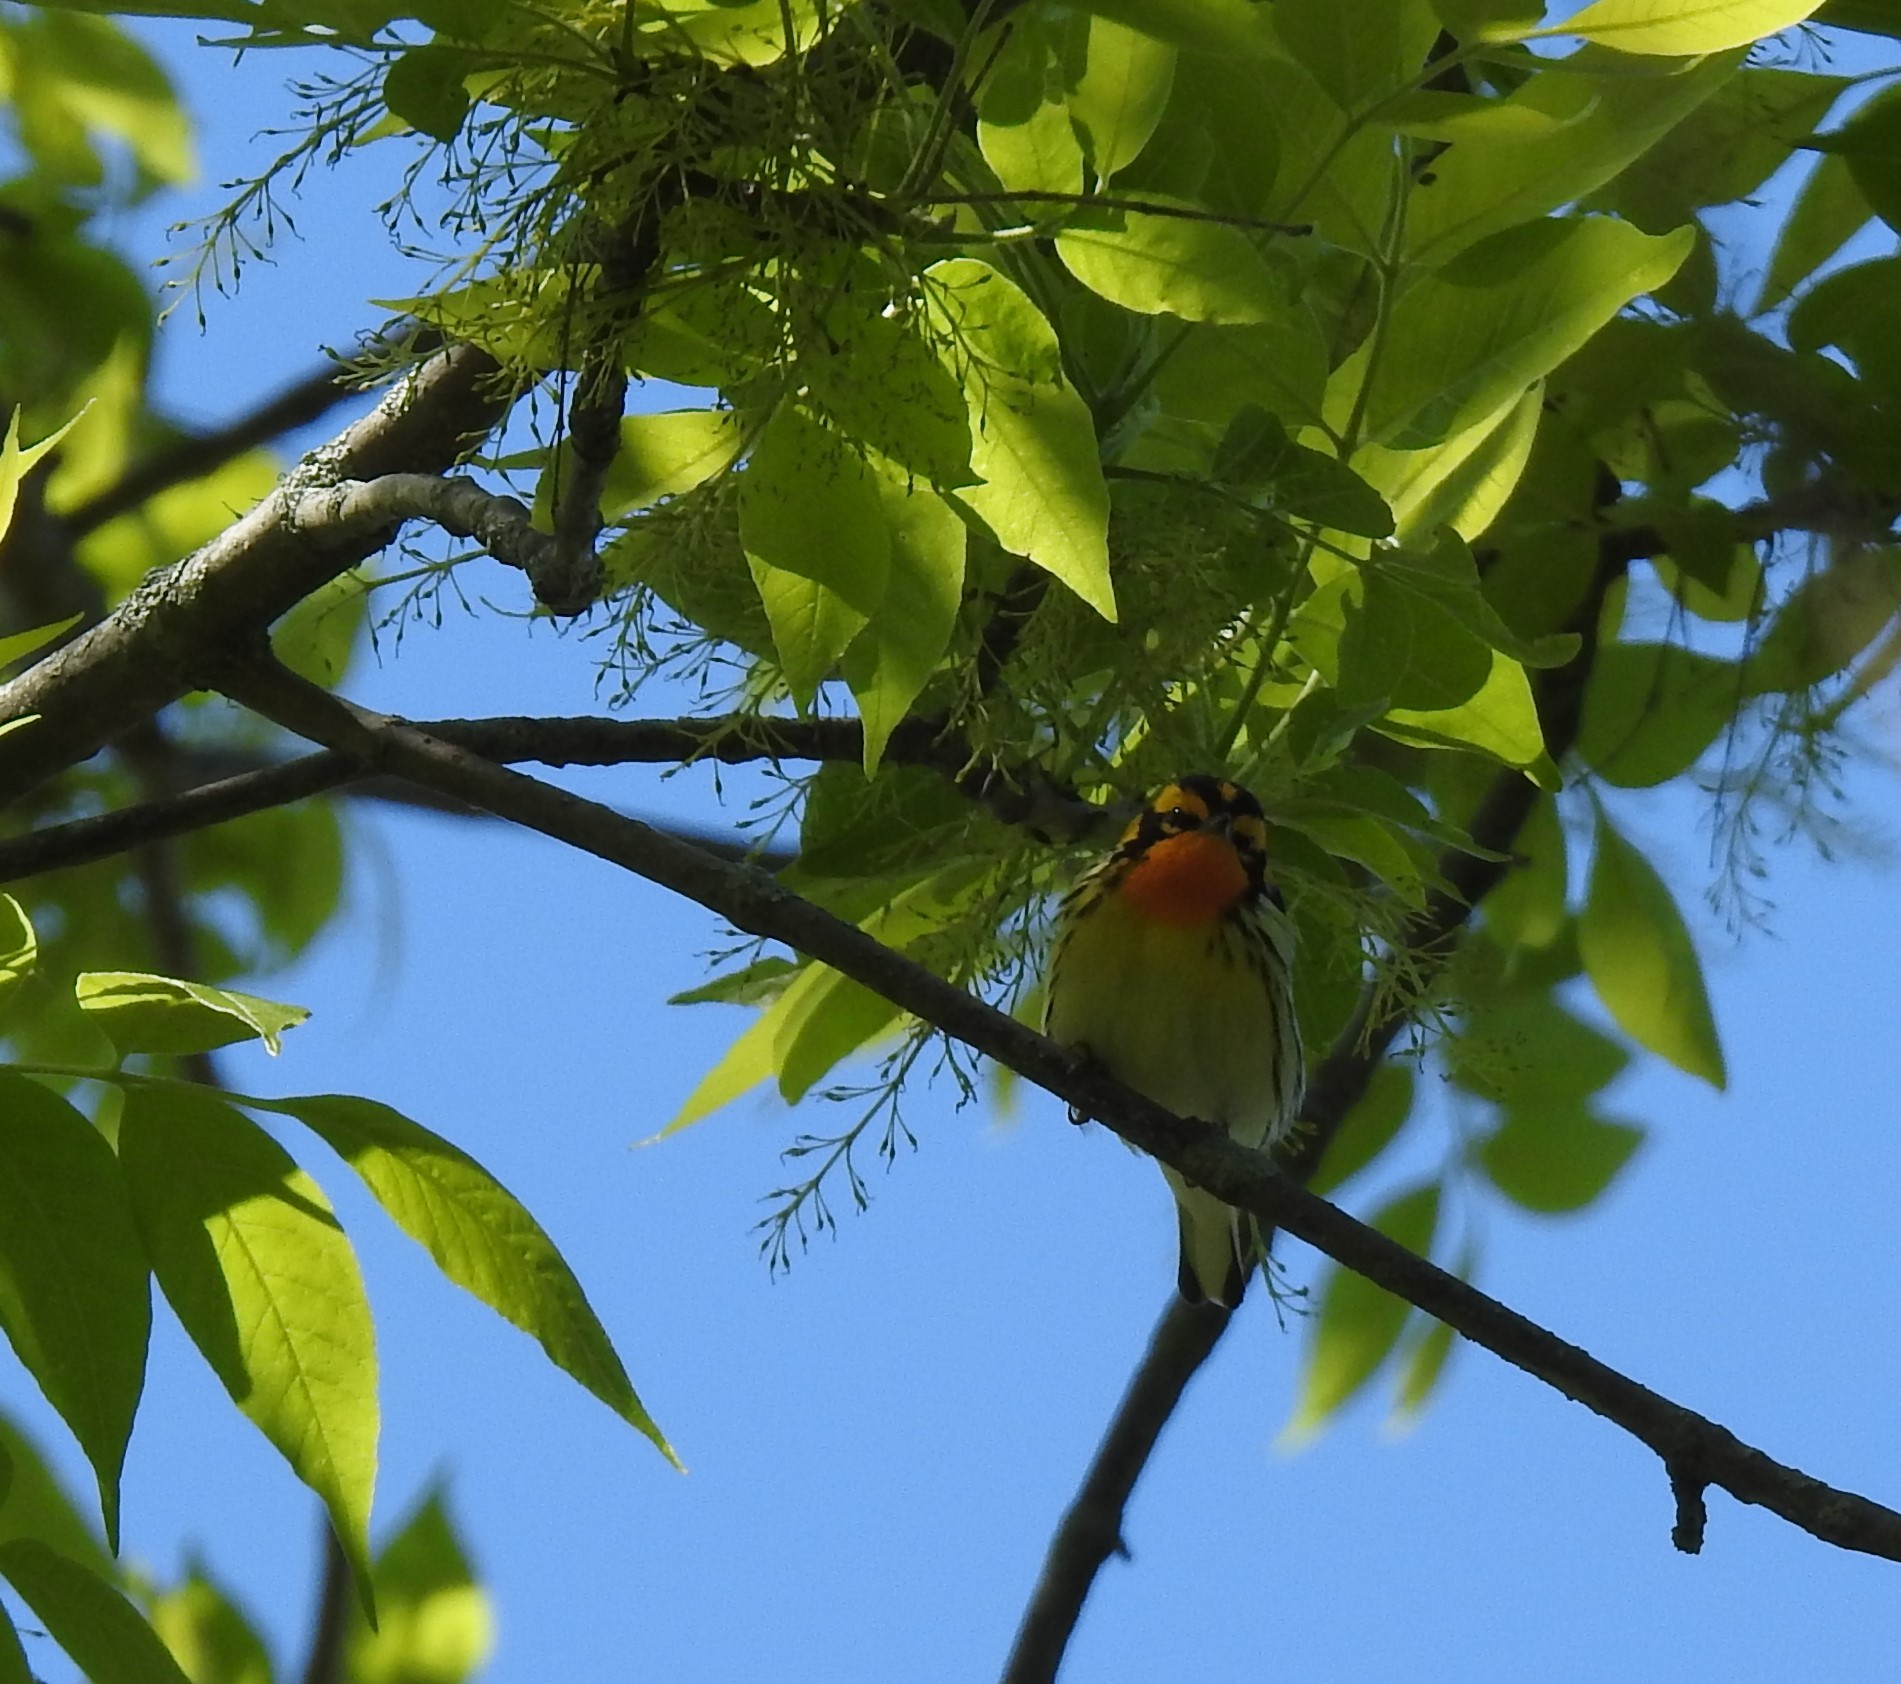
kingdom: Animalia
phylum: Chordata
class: Aves
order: Passeriformes
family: Parulidae
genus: Setophaga
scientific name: Setophaga fusca
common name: Blackburnian warbler
